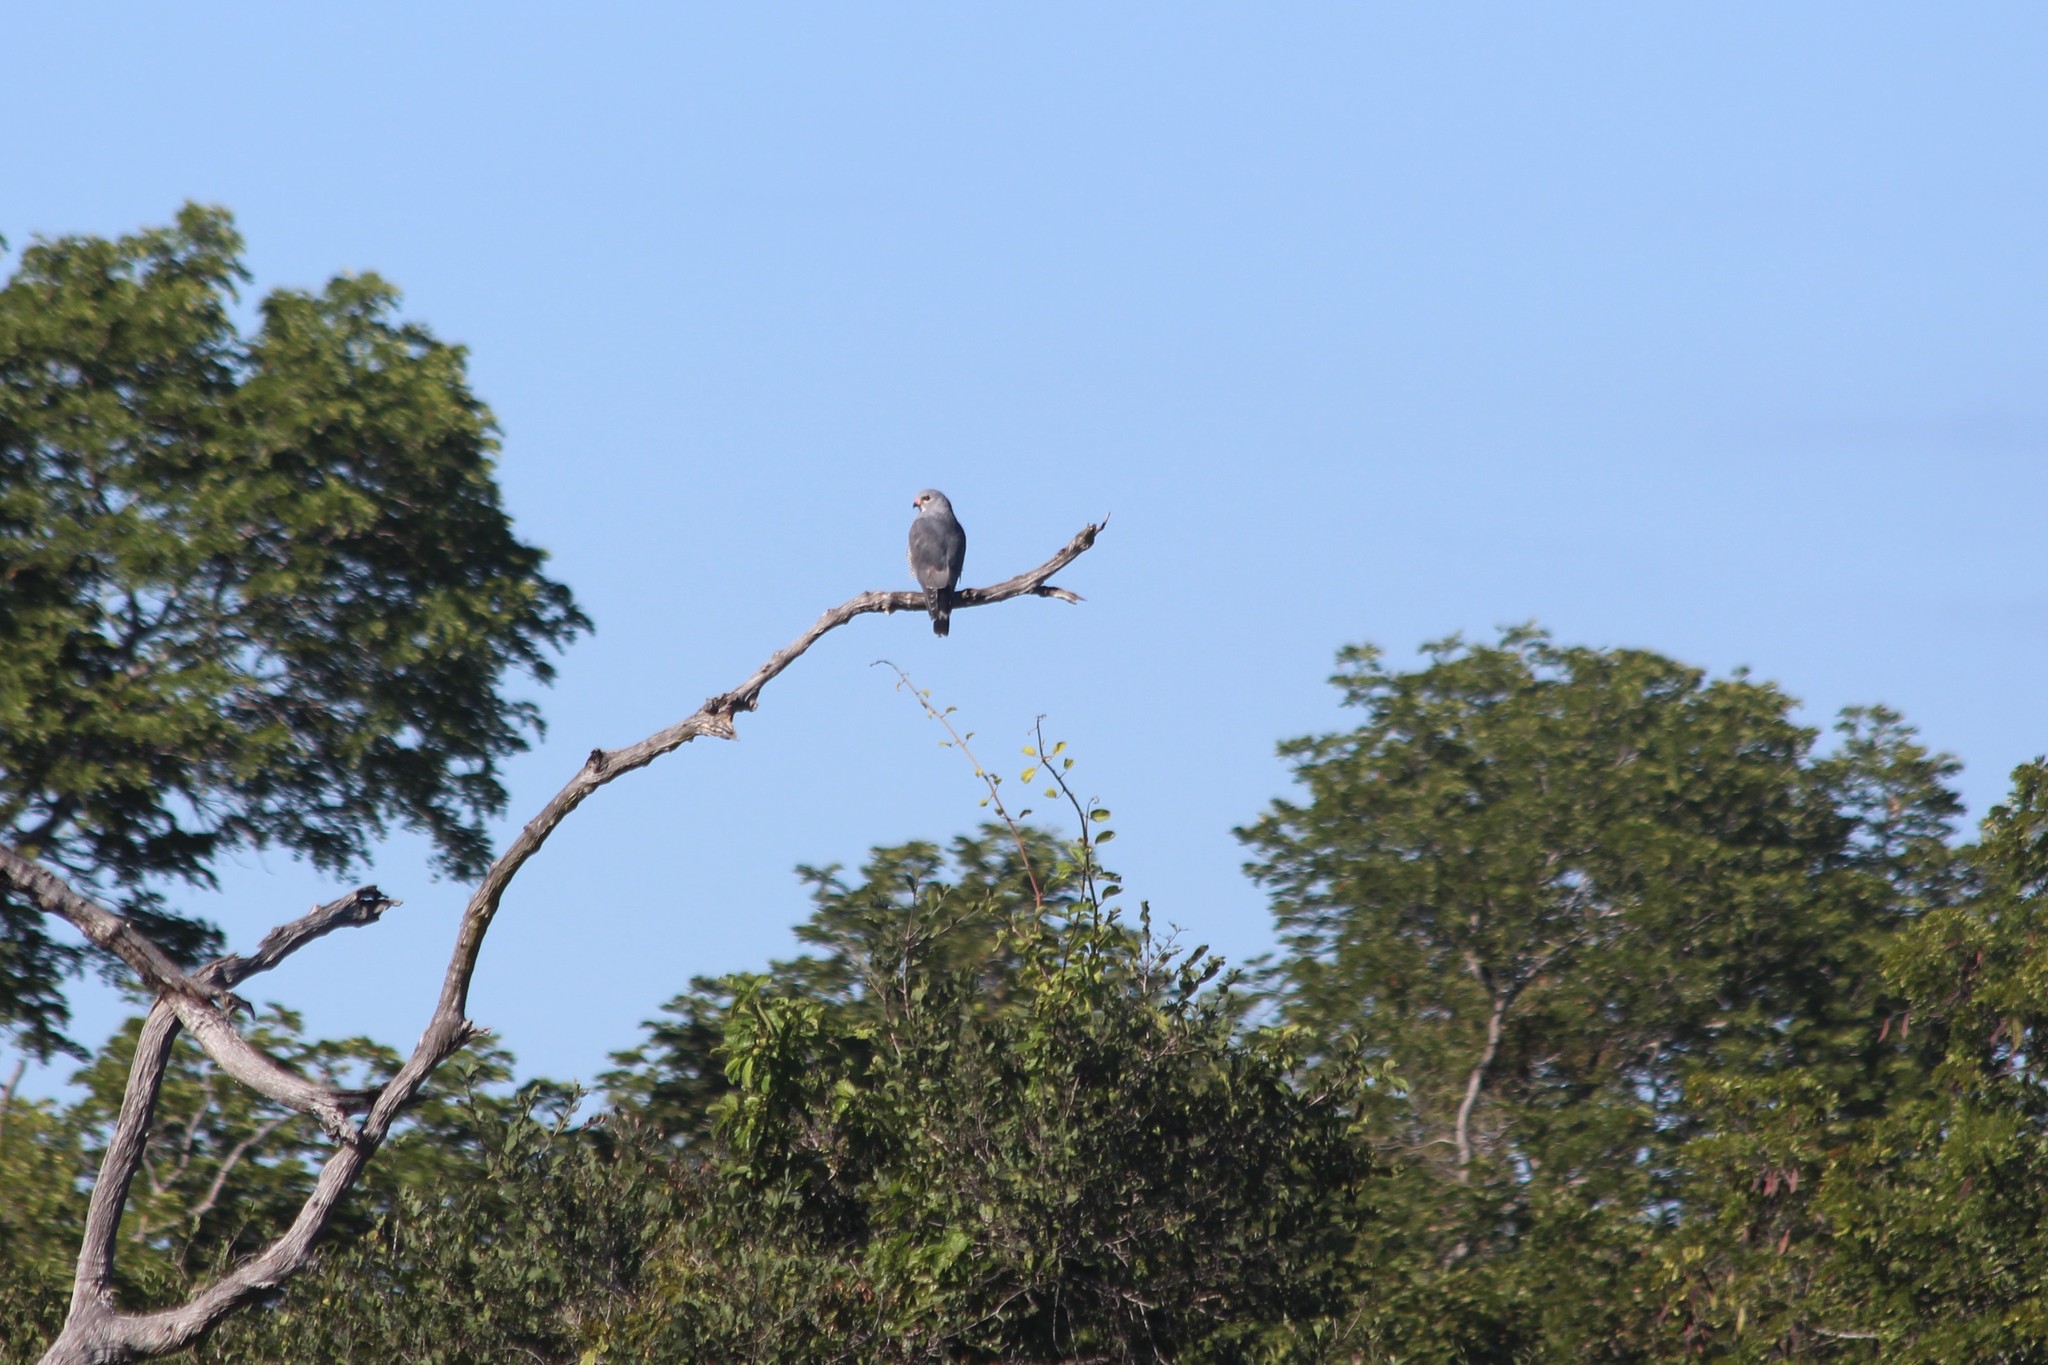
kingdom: Animalia
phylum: Chordata
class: Aves
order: Accipitriformes
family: Accipitridae
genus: Kaupifalco
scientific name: Kaupifalco monogrammicus
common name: Lizard buzzard
